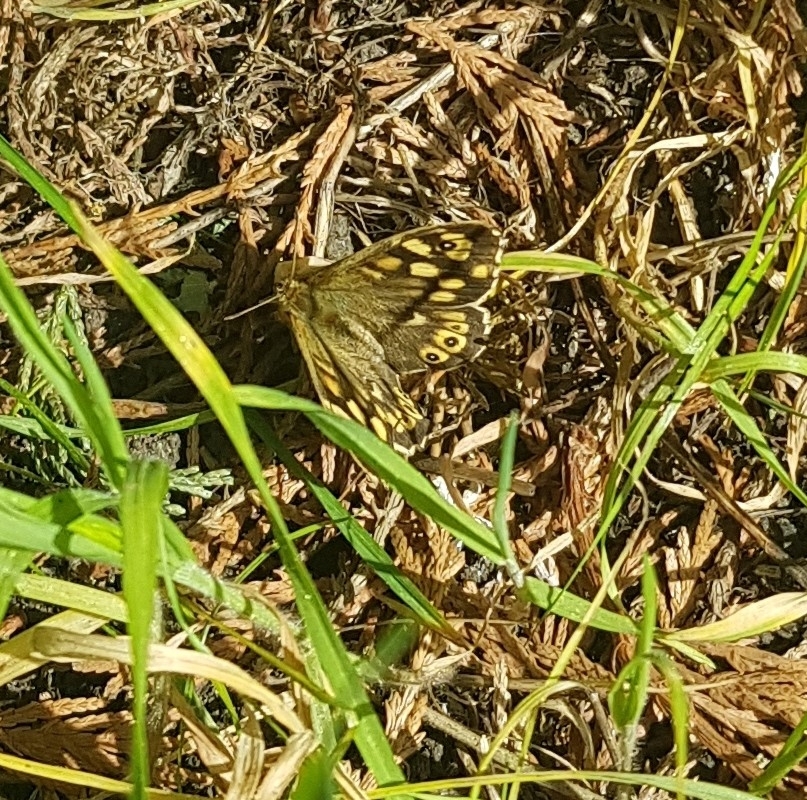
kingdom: Animalia
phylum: Arthropoda
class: Insecta
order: Lepidoptera
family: Nymphalidae
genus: Pararge
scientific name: Pararge aegeria
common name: Speckled wood
